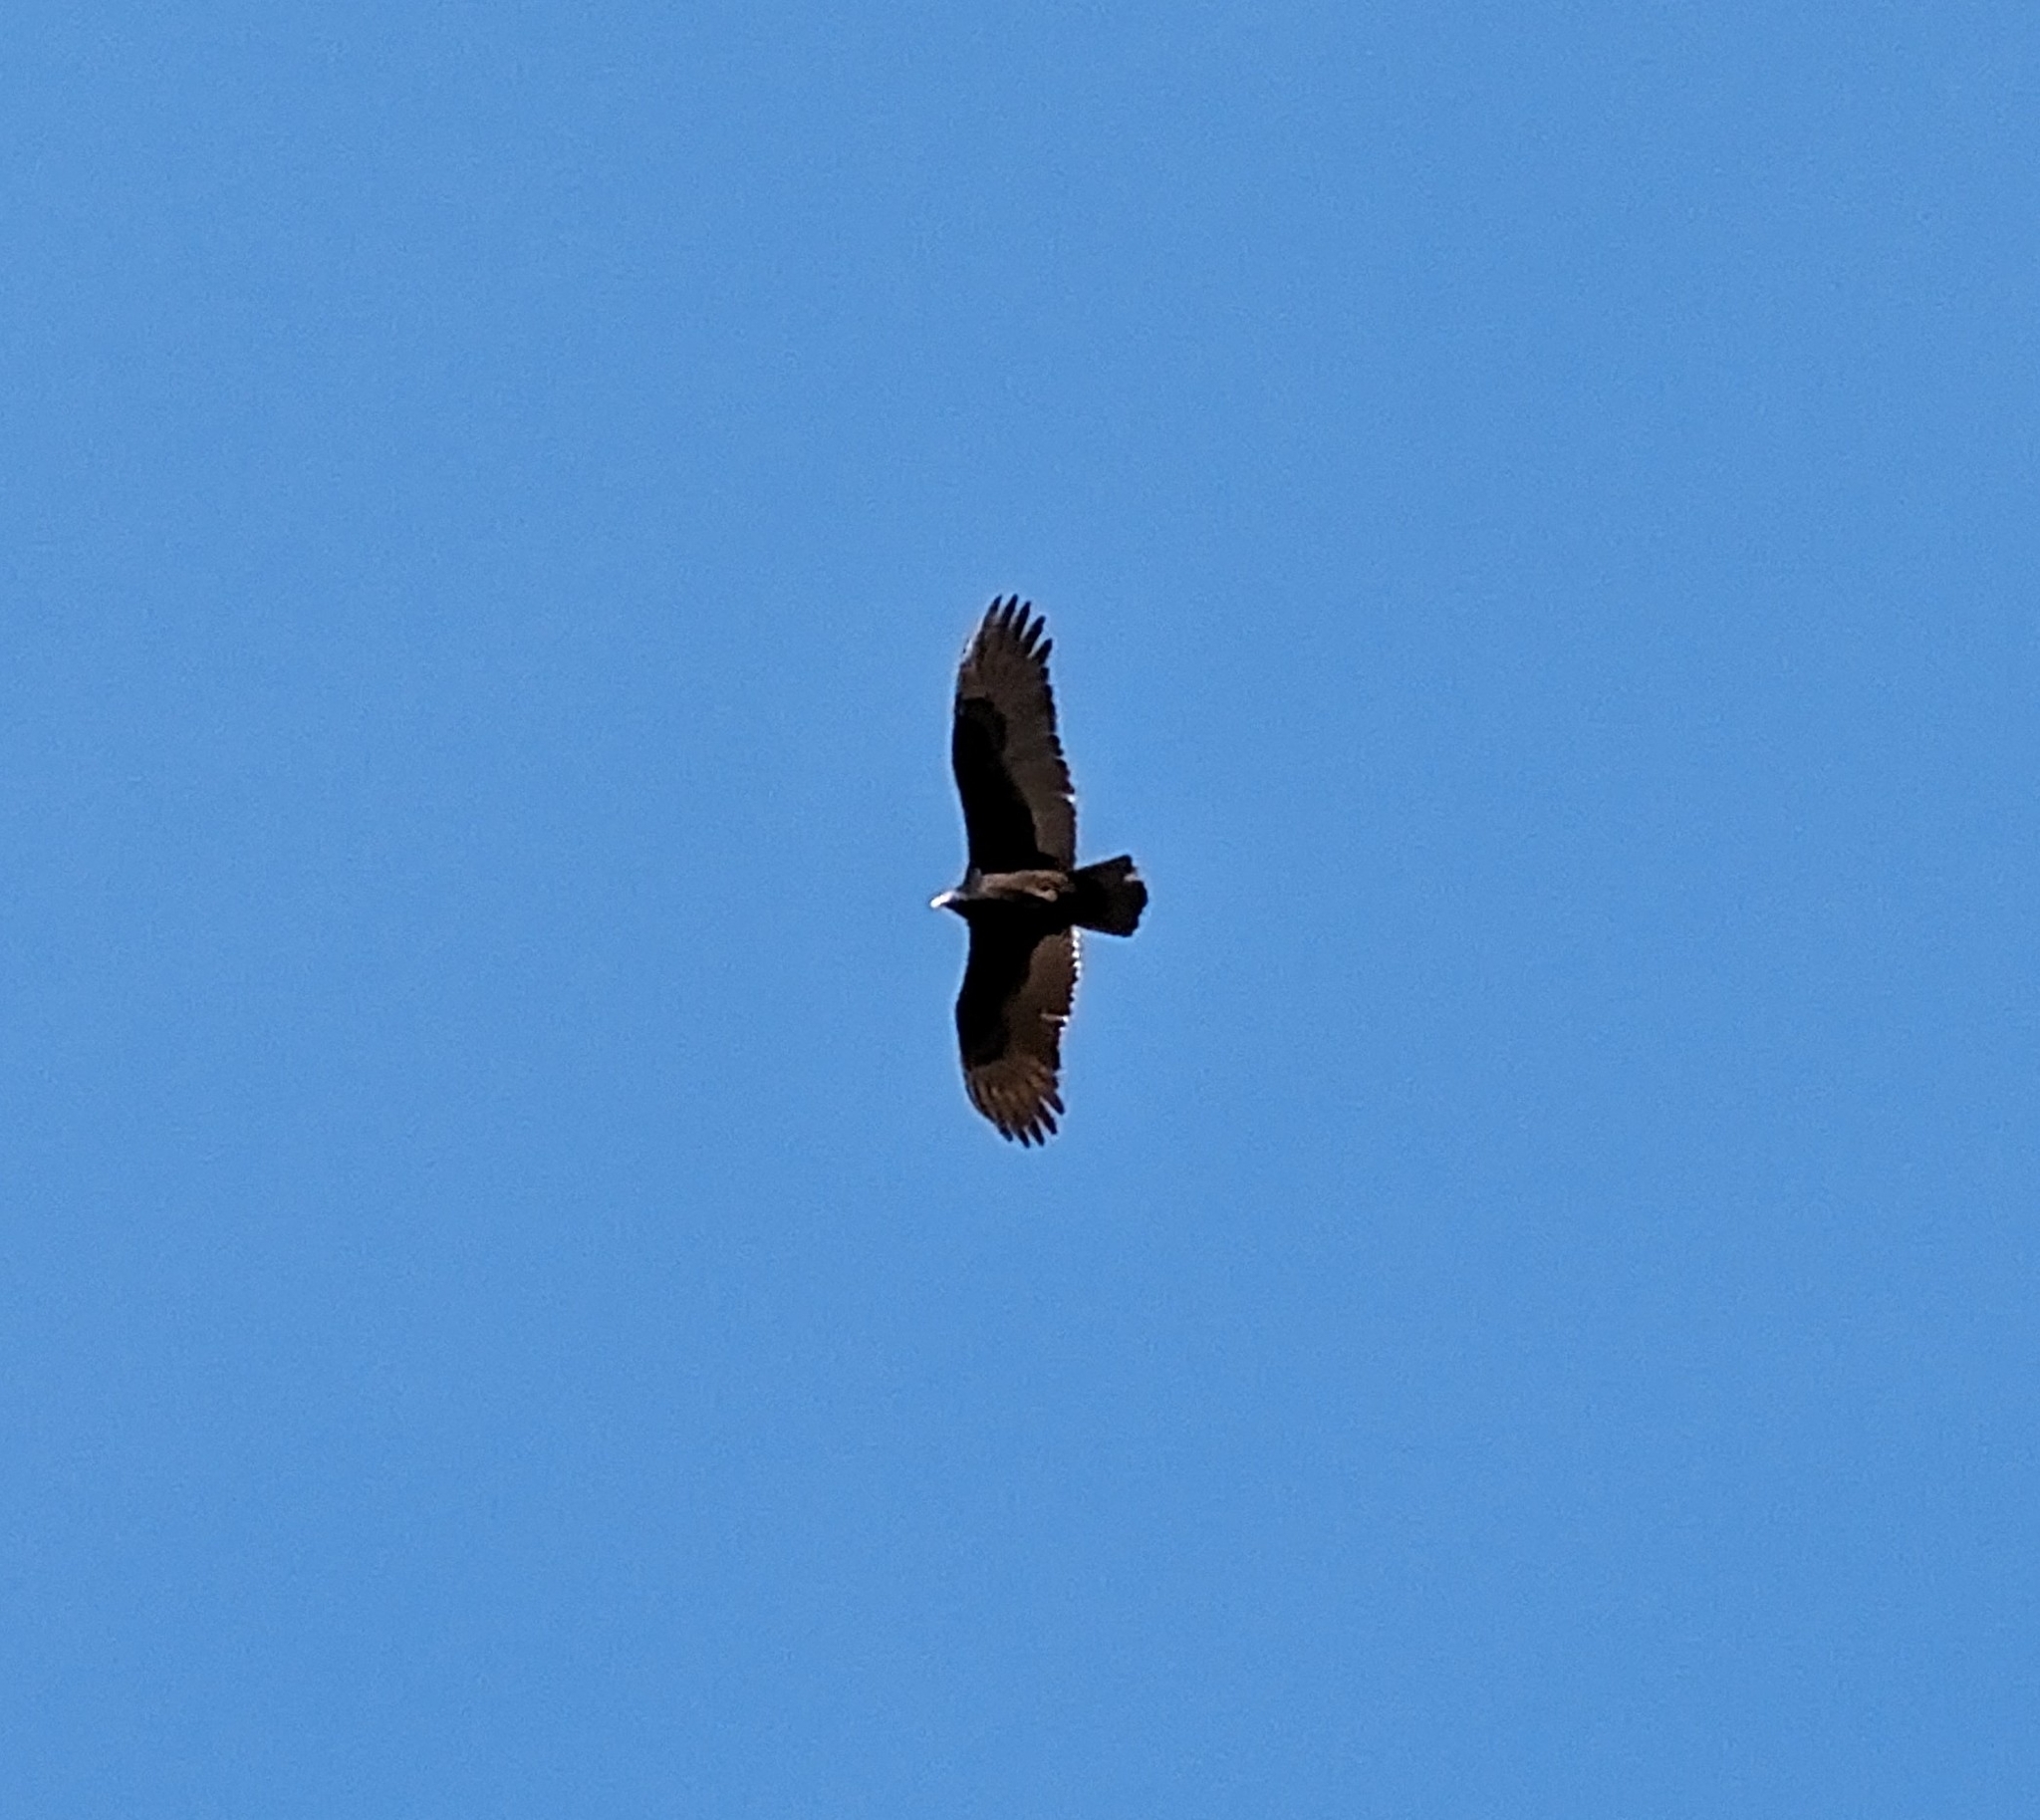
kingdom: Animalia
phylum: Chordata
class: Aves
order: Accipitriformes
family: Cathartidae
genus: Cathartes
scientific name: Cathartes aura
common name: Turkey vulture
